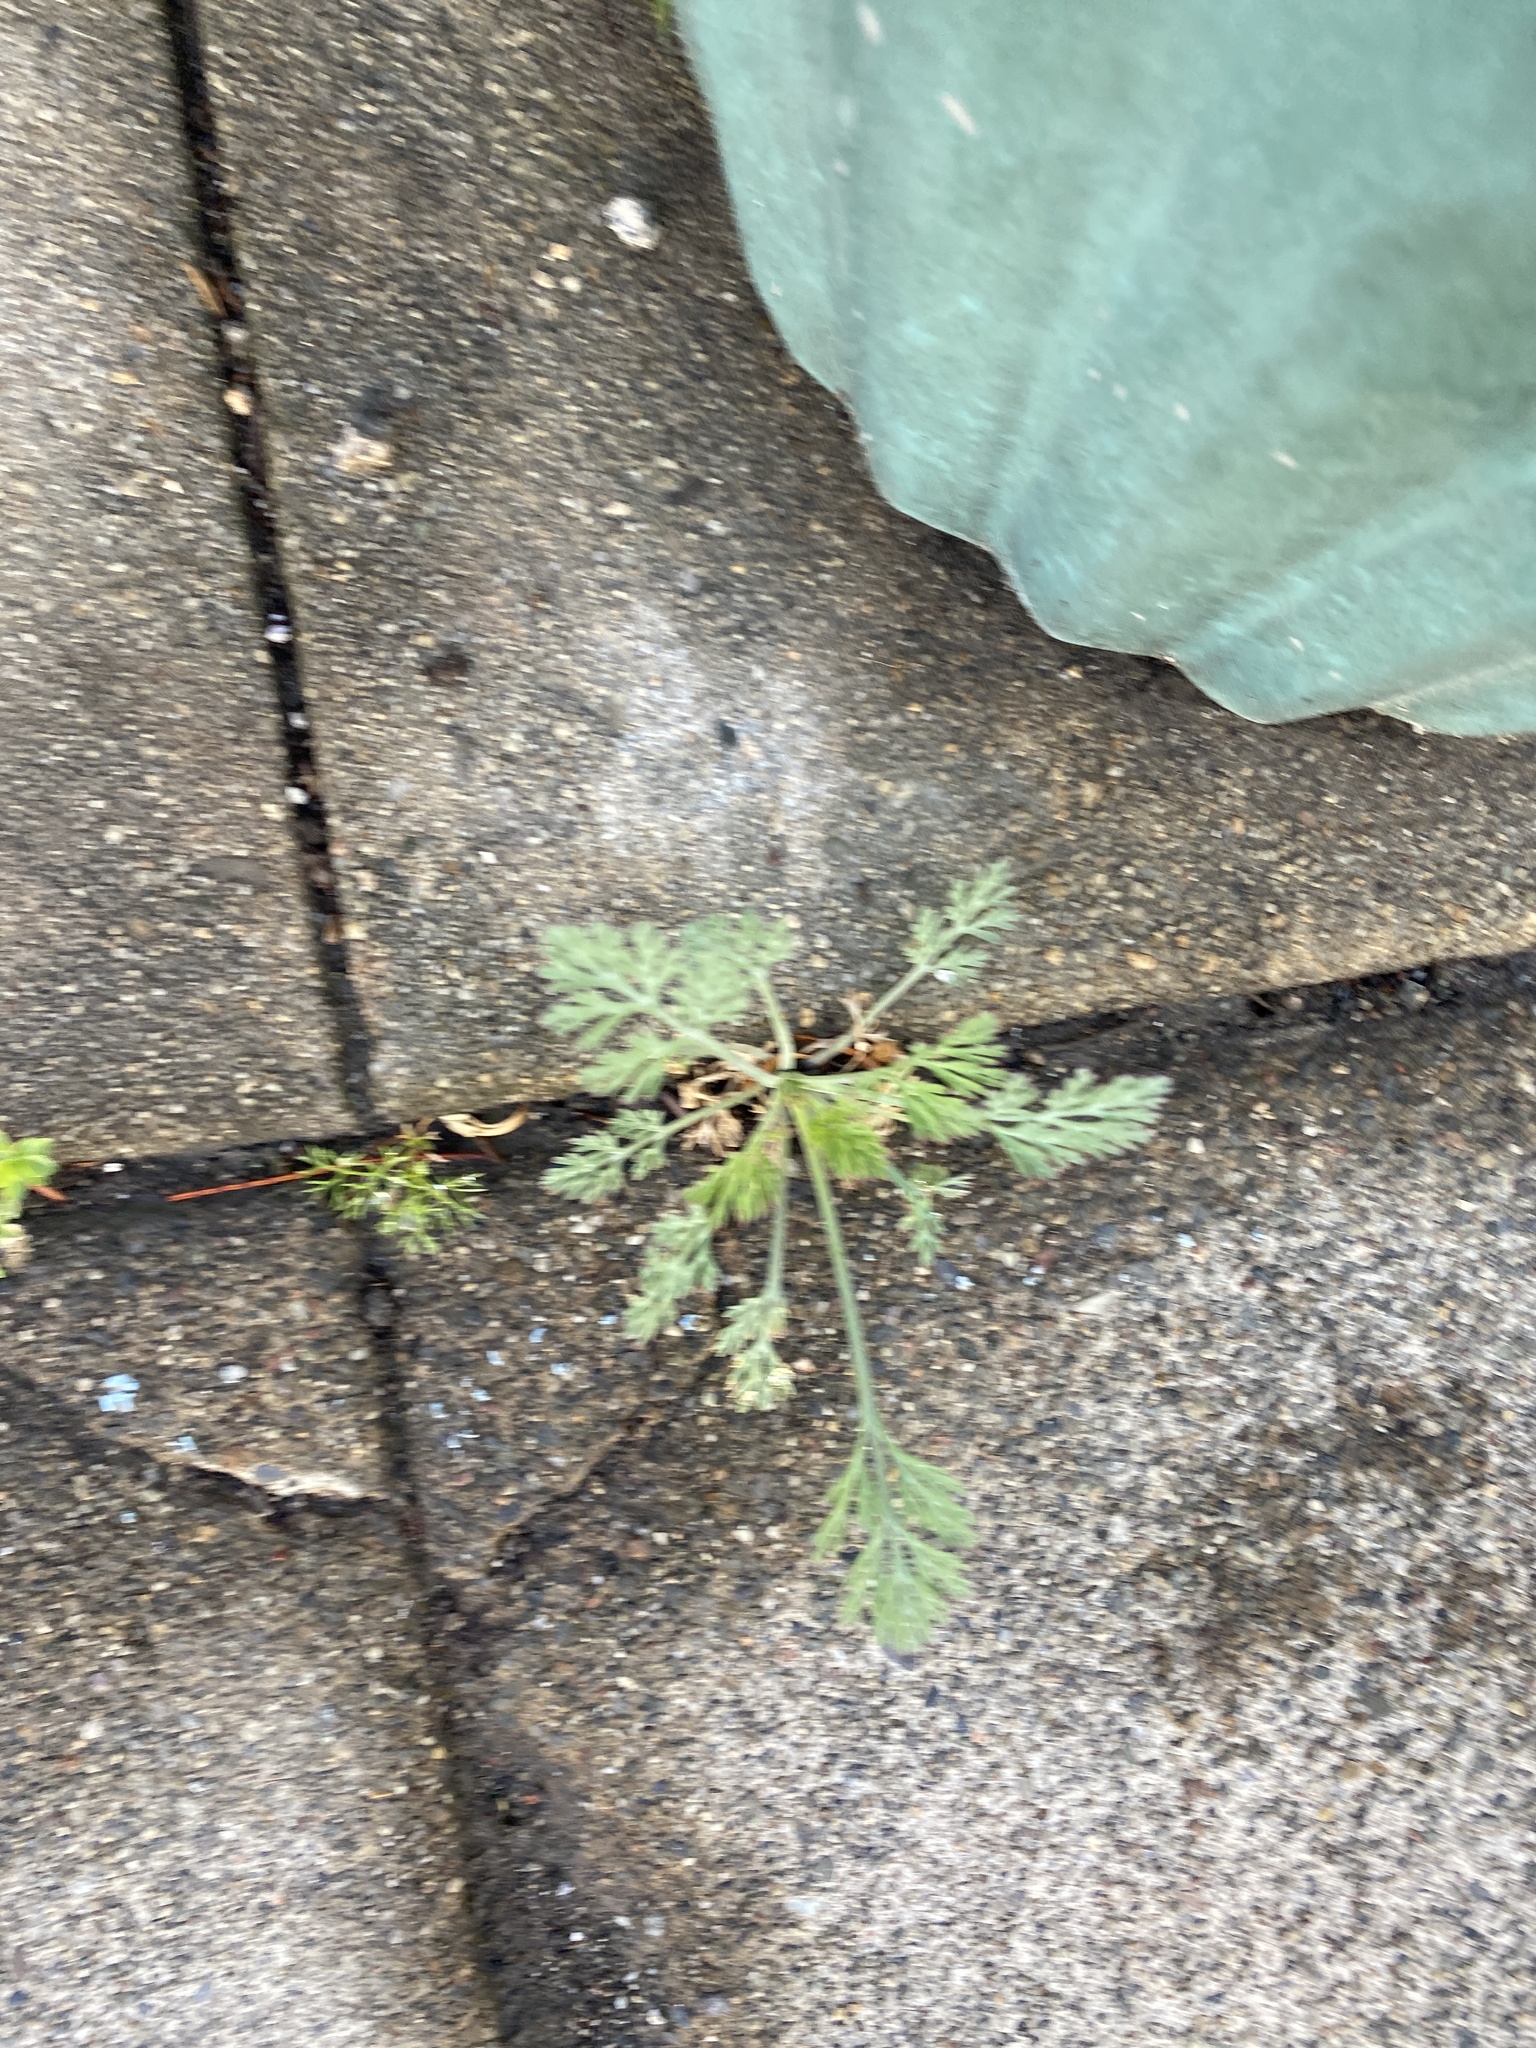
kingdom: Plantae
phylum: Tracheophyta
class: Magnoliopsida
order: Ranunculales
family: Papaveraceae
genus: Eschscholzia
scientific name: Eschscholzia californica
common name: California poppy
